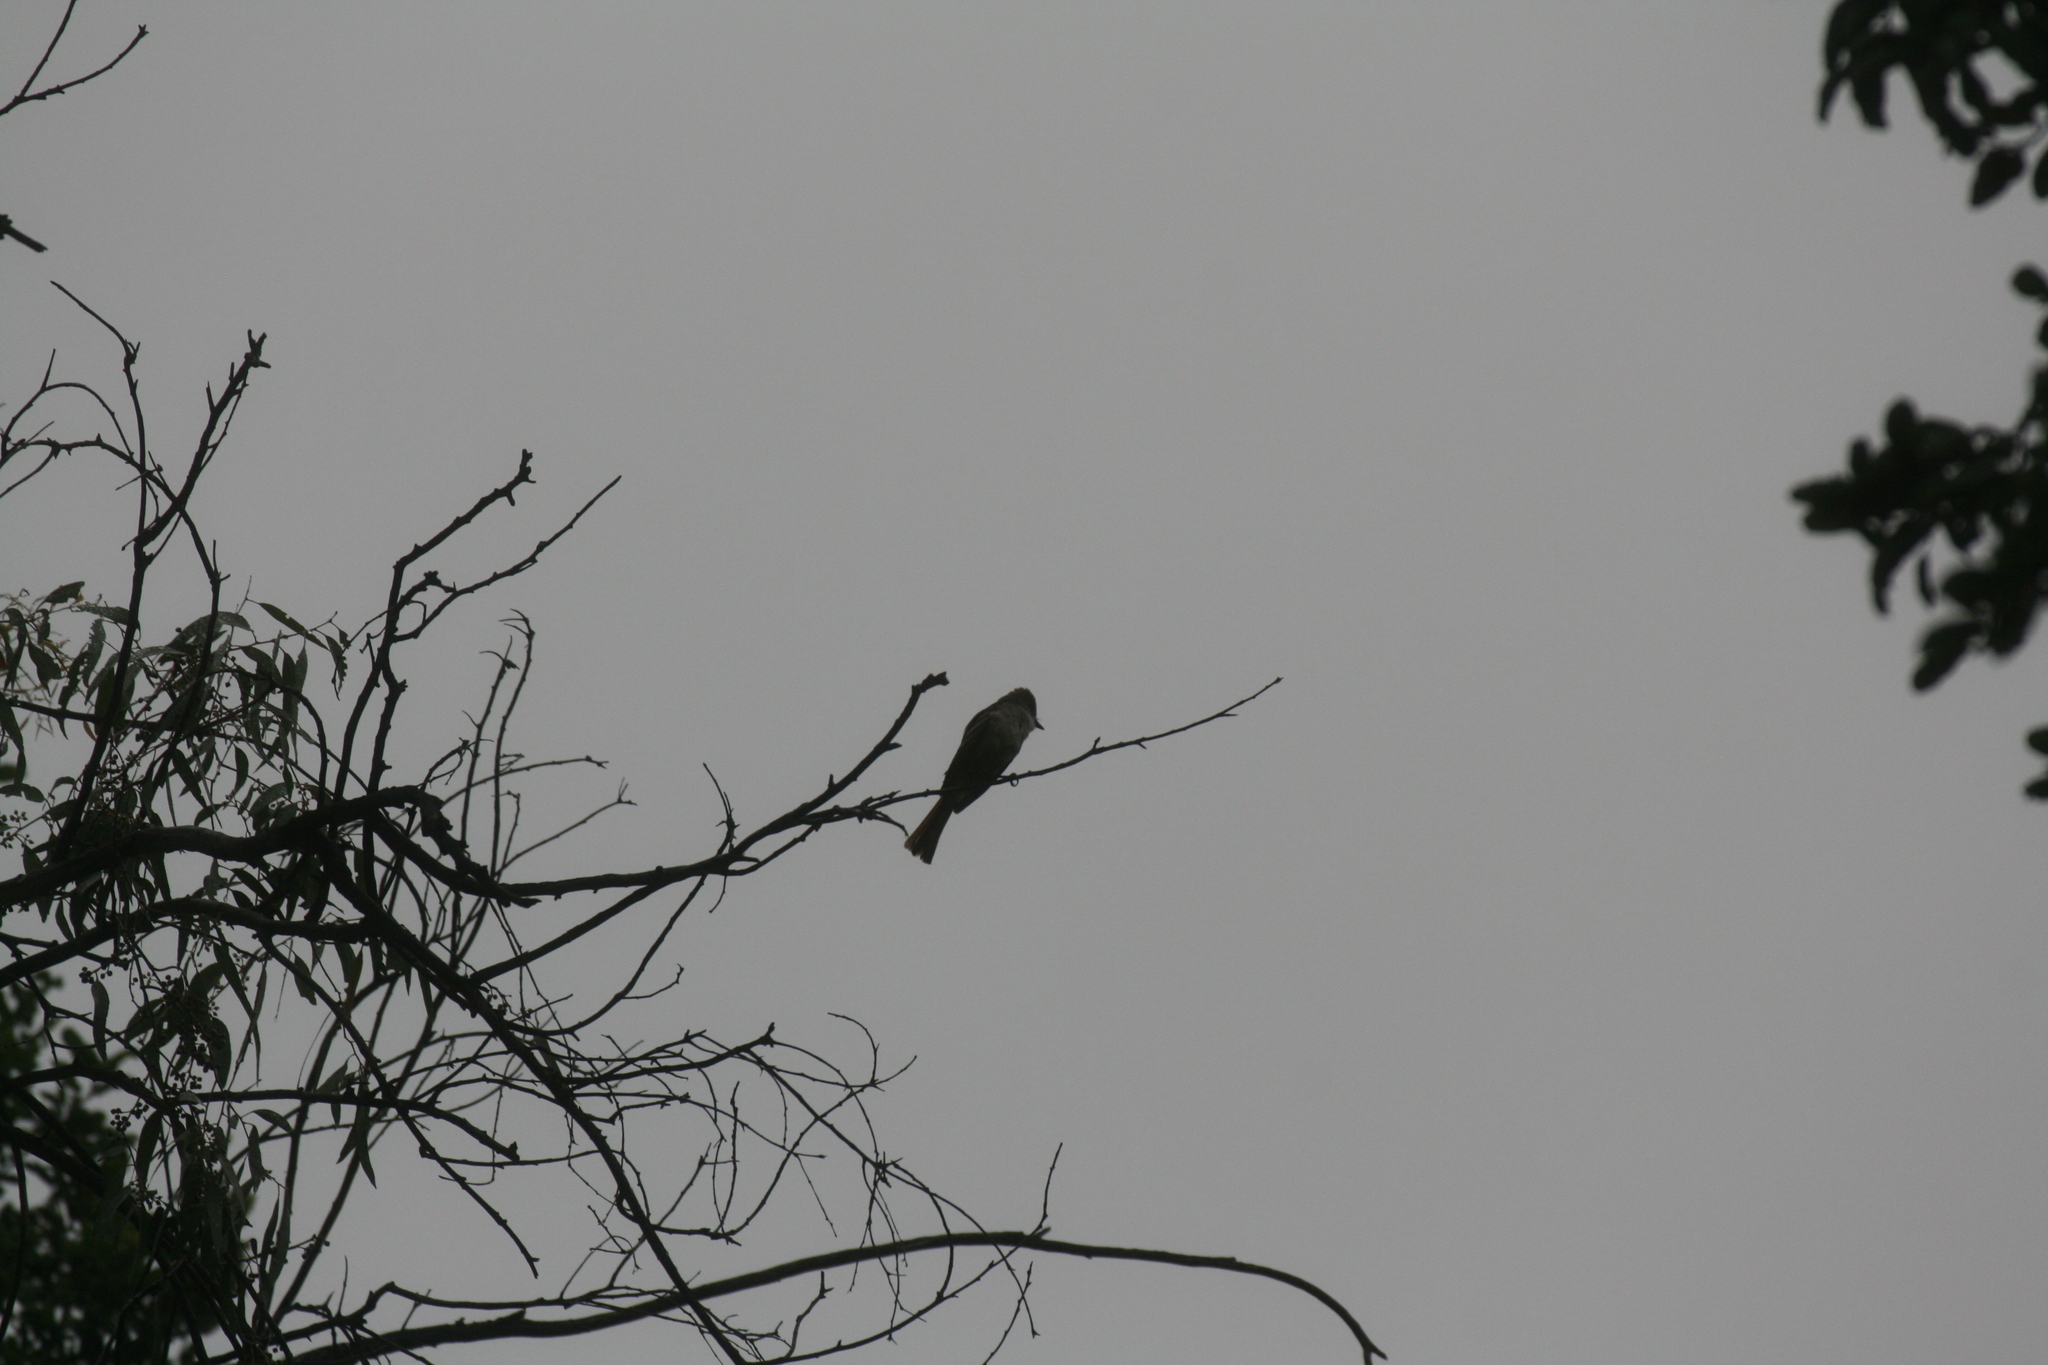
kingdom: Animalia
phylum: Chordata
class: Aves
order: Passeriformes
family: Tyrannidae
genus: Myiarchus
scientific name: Myiarchus cinerascens
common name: Ash-throated flycatcher
